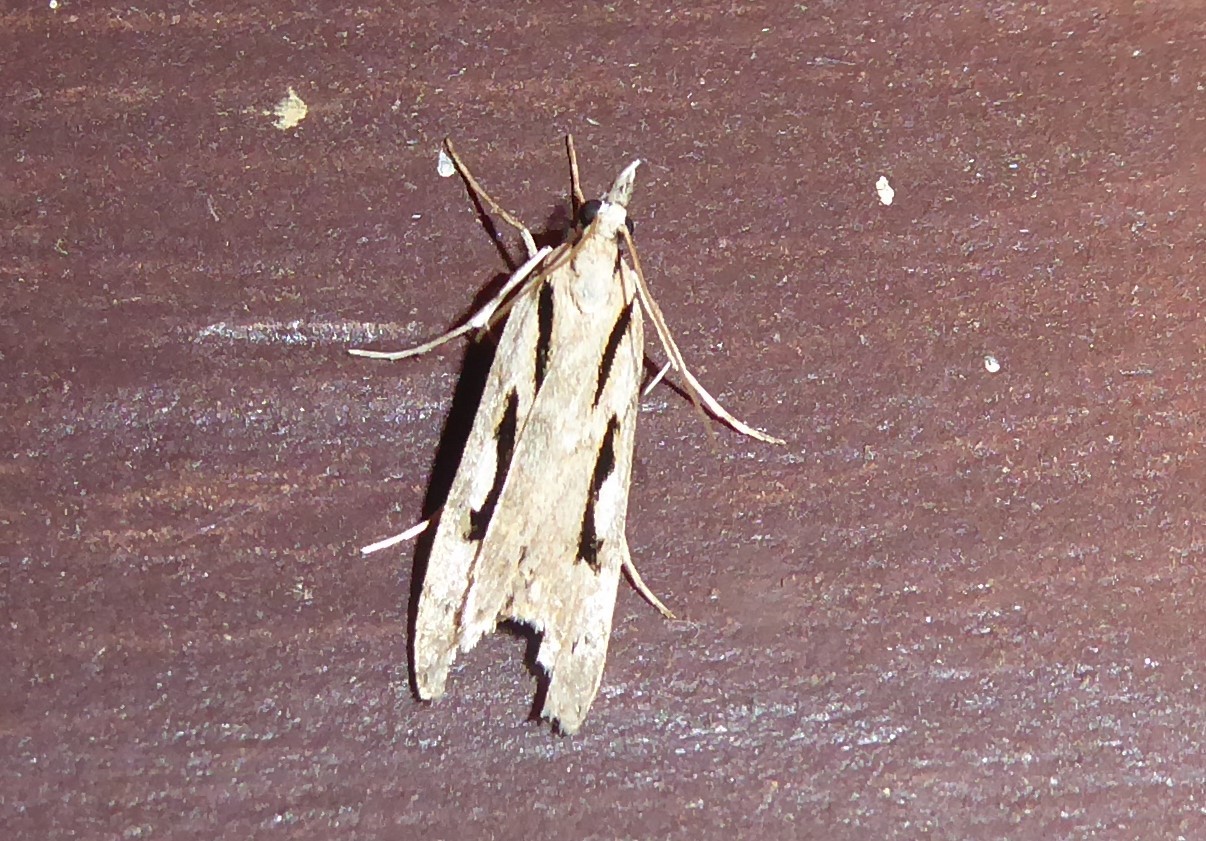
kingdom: Animalia
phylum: Arthropoda
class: Insecta
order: Lepidoptera
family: Crambidae
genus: Scoparia
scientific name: Scoparia rotuellus
